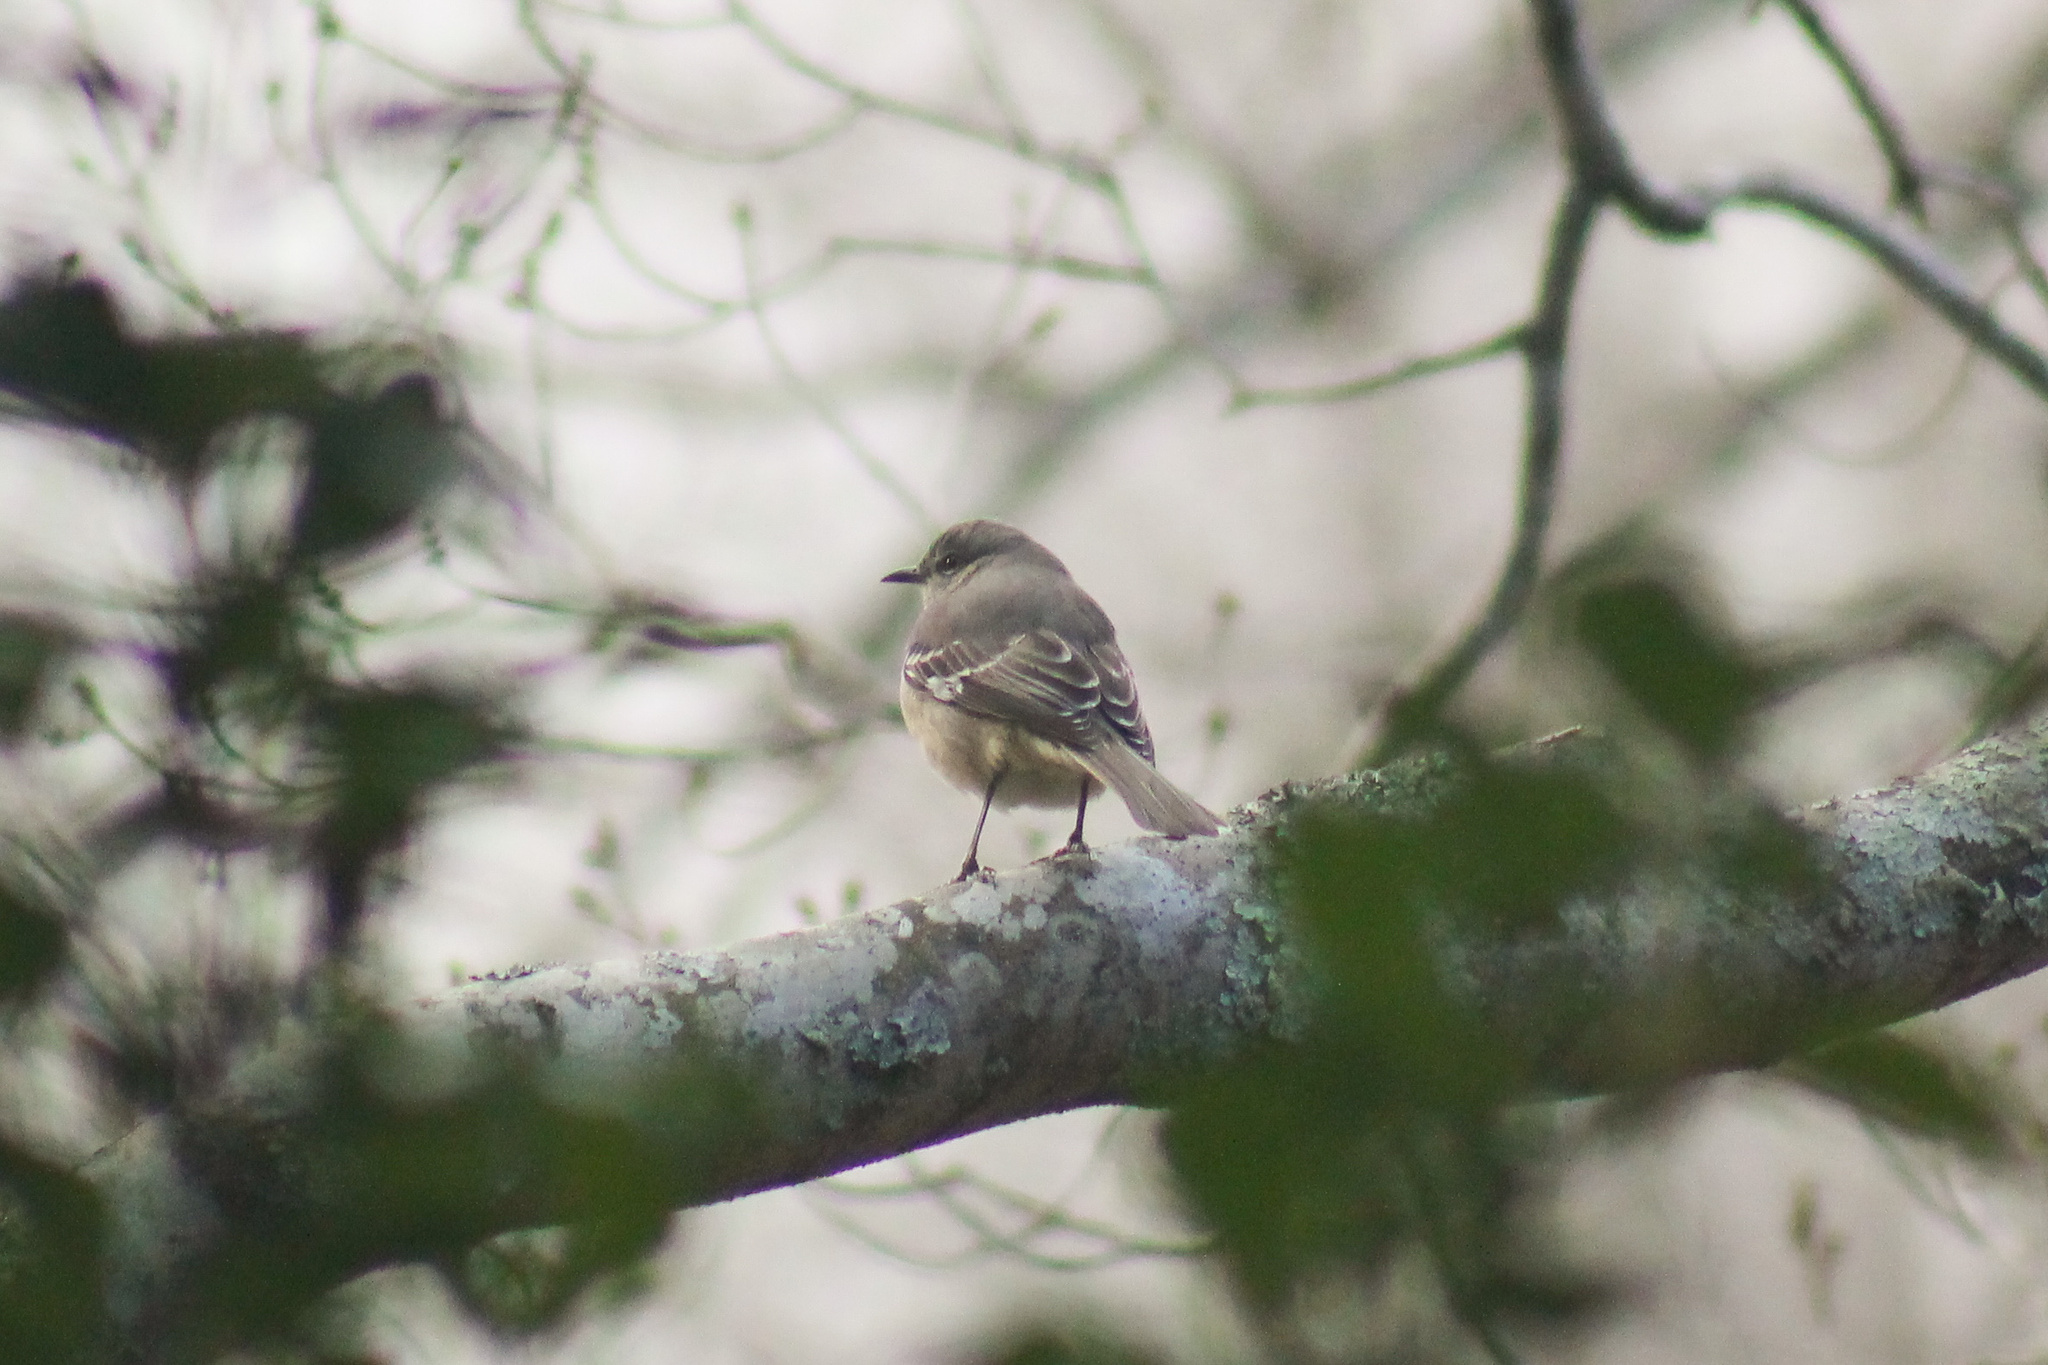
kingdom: Animalia
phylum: Chordata
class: Aves
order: Passeriformes
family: Mimidae
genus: Mimus
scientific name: Mimus polyglottos
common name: Northern mockingbird
